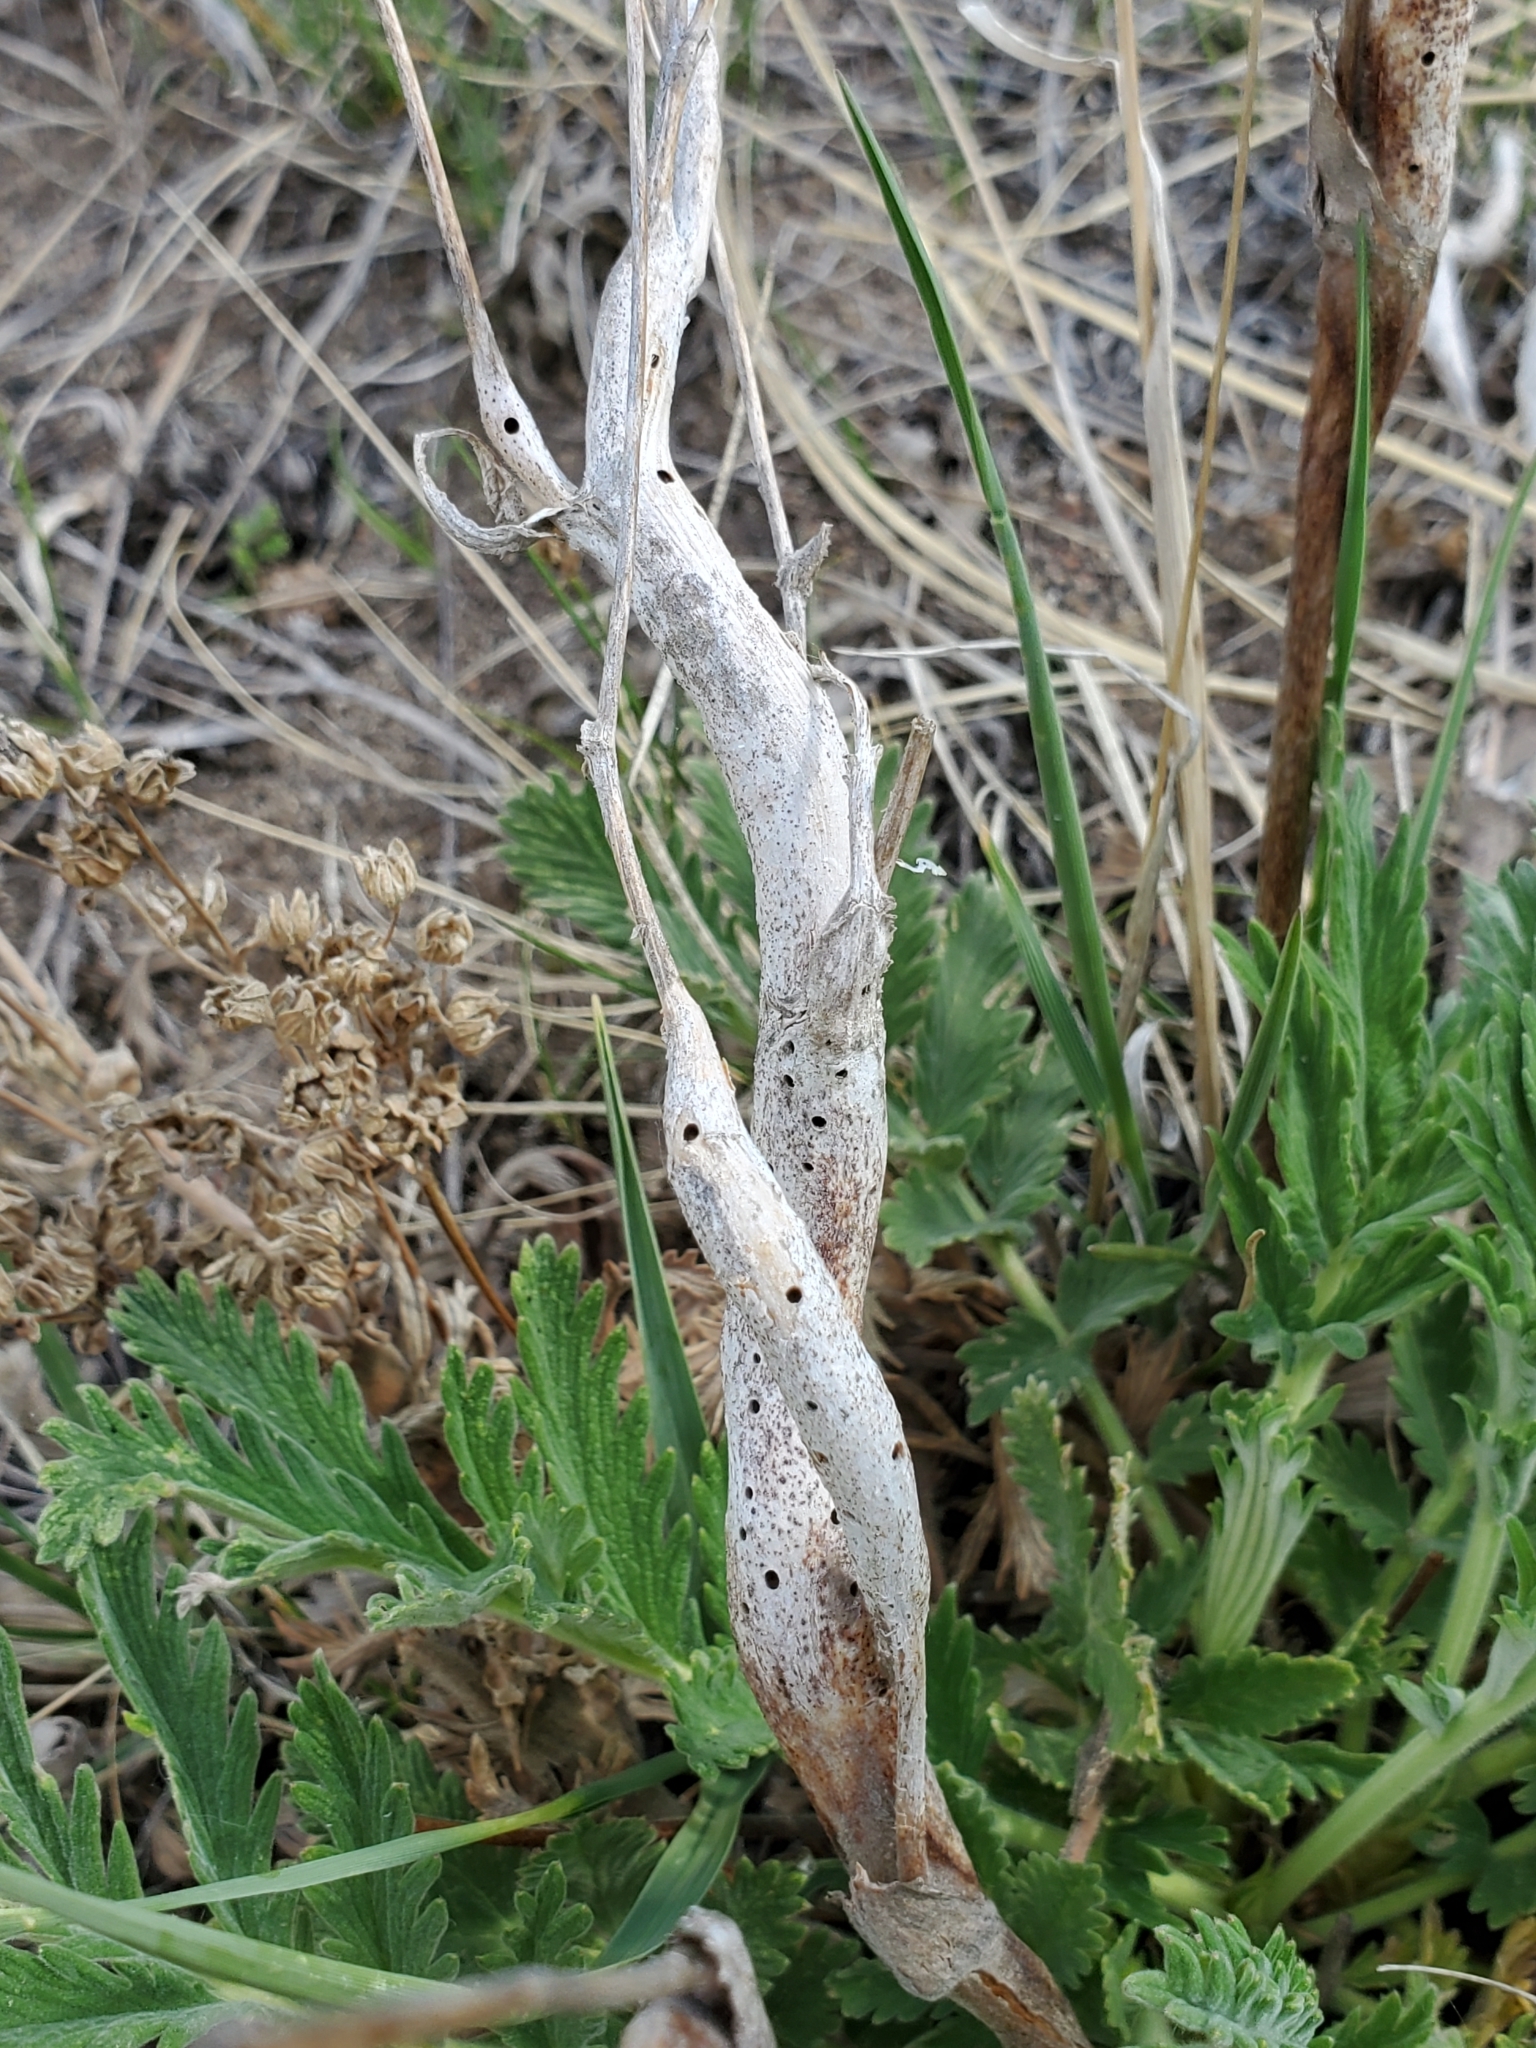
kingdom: Animalia
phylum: Arthropoda
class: Insecta
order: Hymenoptera
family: Cynipidae
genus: Diastrophus
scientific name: Diastrophus
